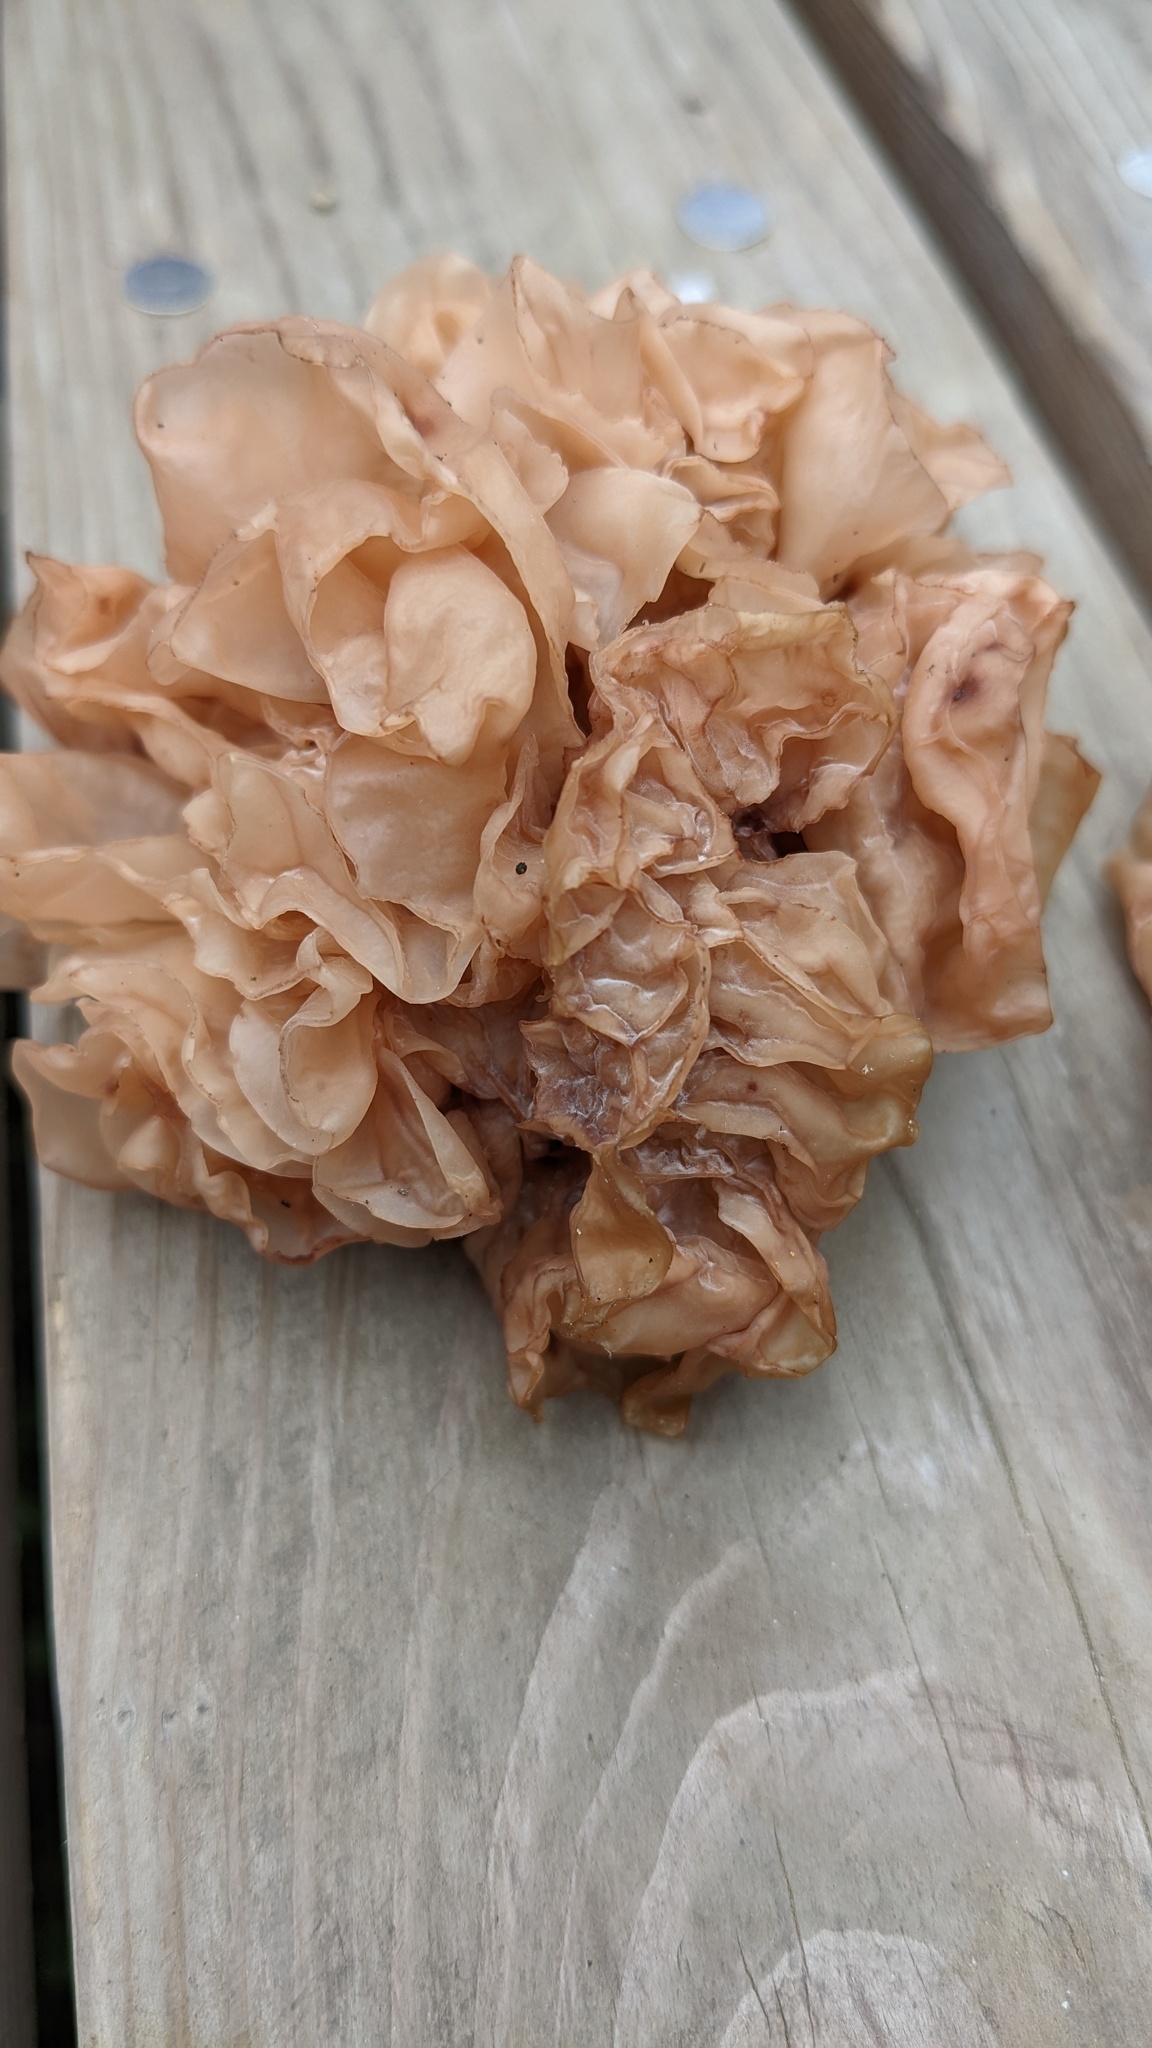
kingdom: Fungi
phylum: Basidiomycota
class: Tremellomycetes
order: Tremellales
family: Tremellaceae
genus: Phaeotremella
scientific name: Phaeotremella foliacea
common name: Leafy brain
